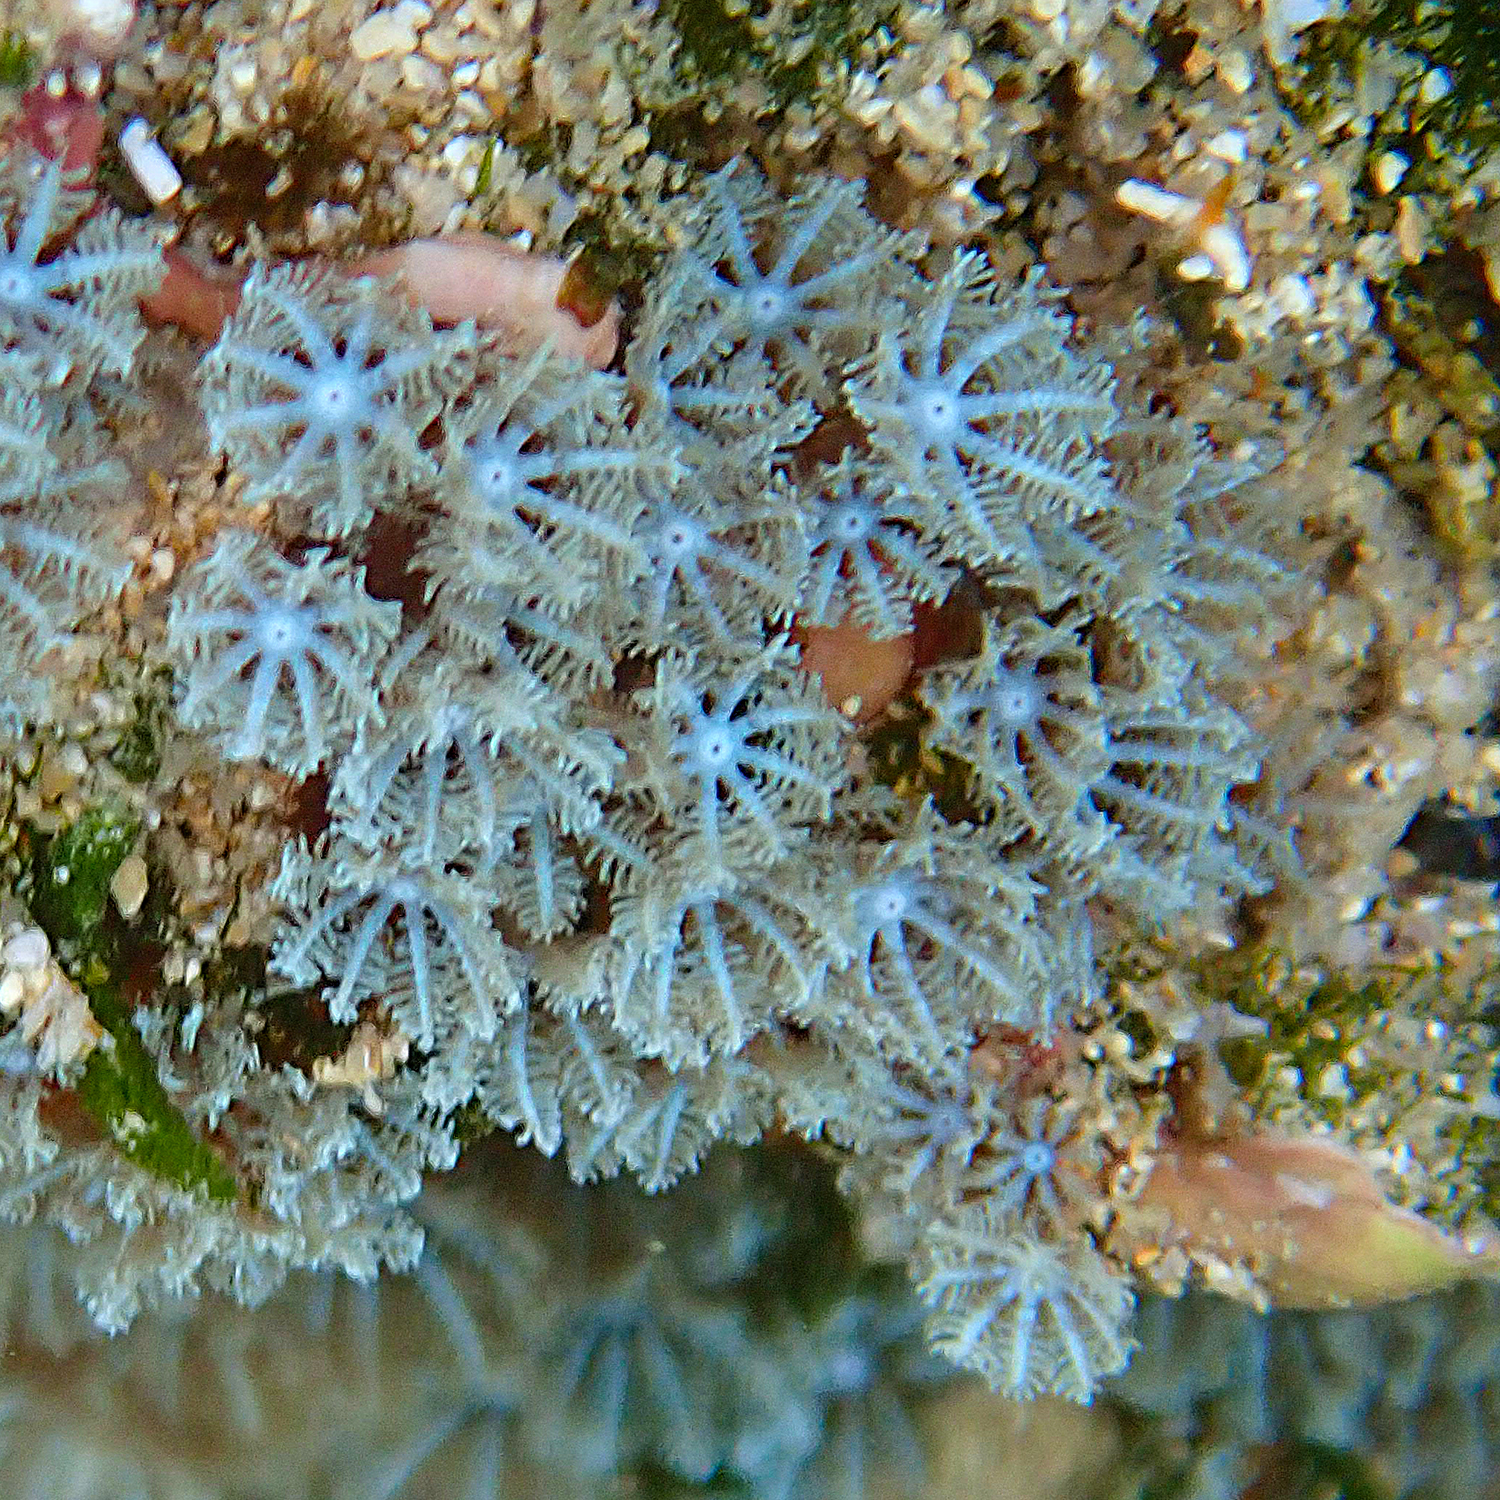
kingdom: Animalia
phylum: Cnidaria
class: Anthozoa
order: Malacalcyonacea
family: Xeniidae
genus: Sarcothelia
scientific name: Sarcothelia edmondsoni
